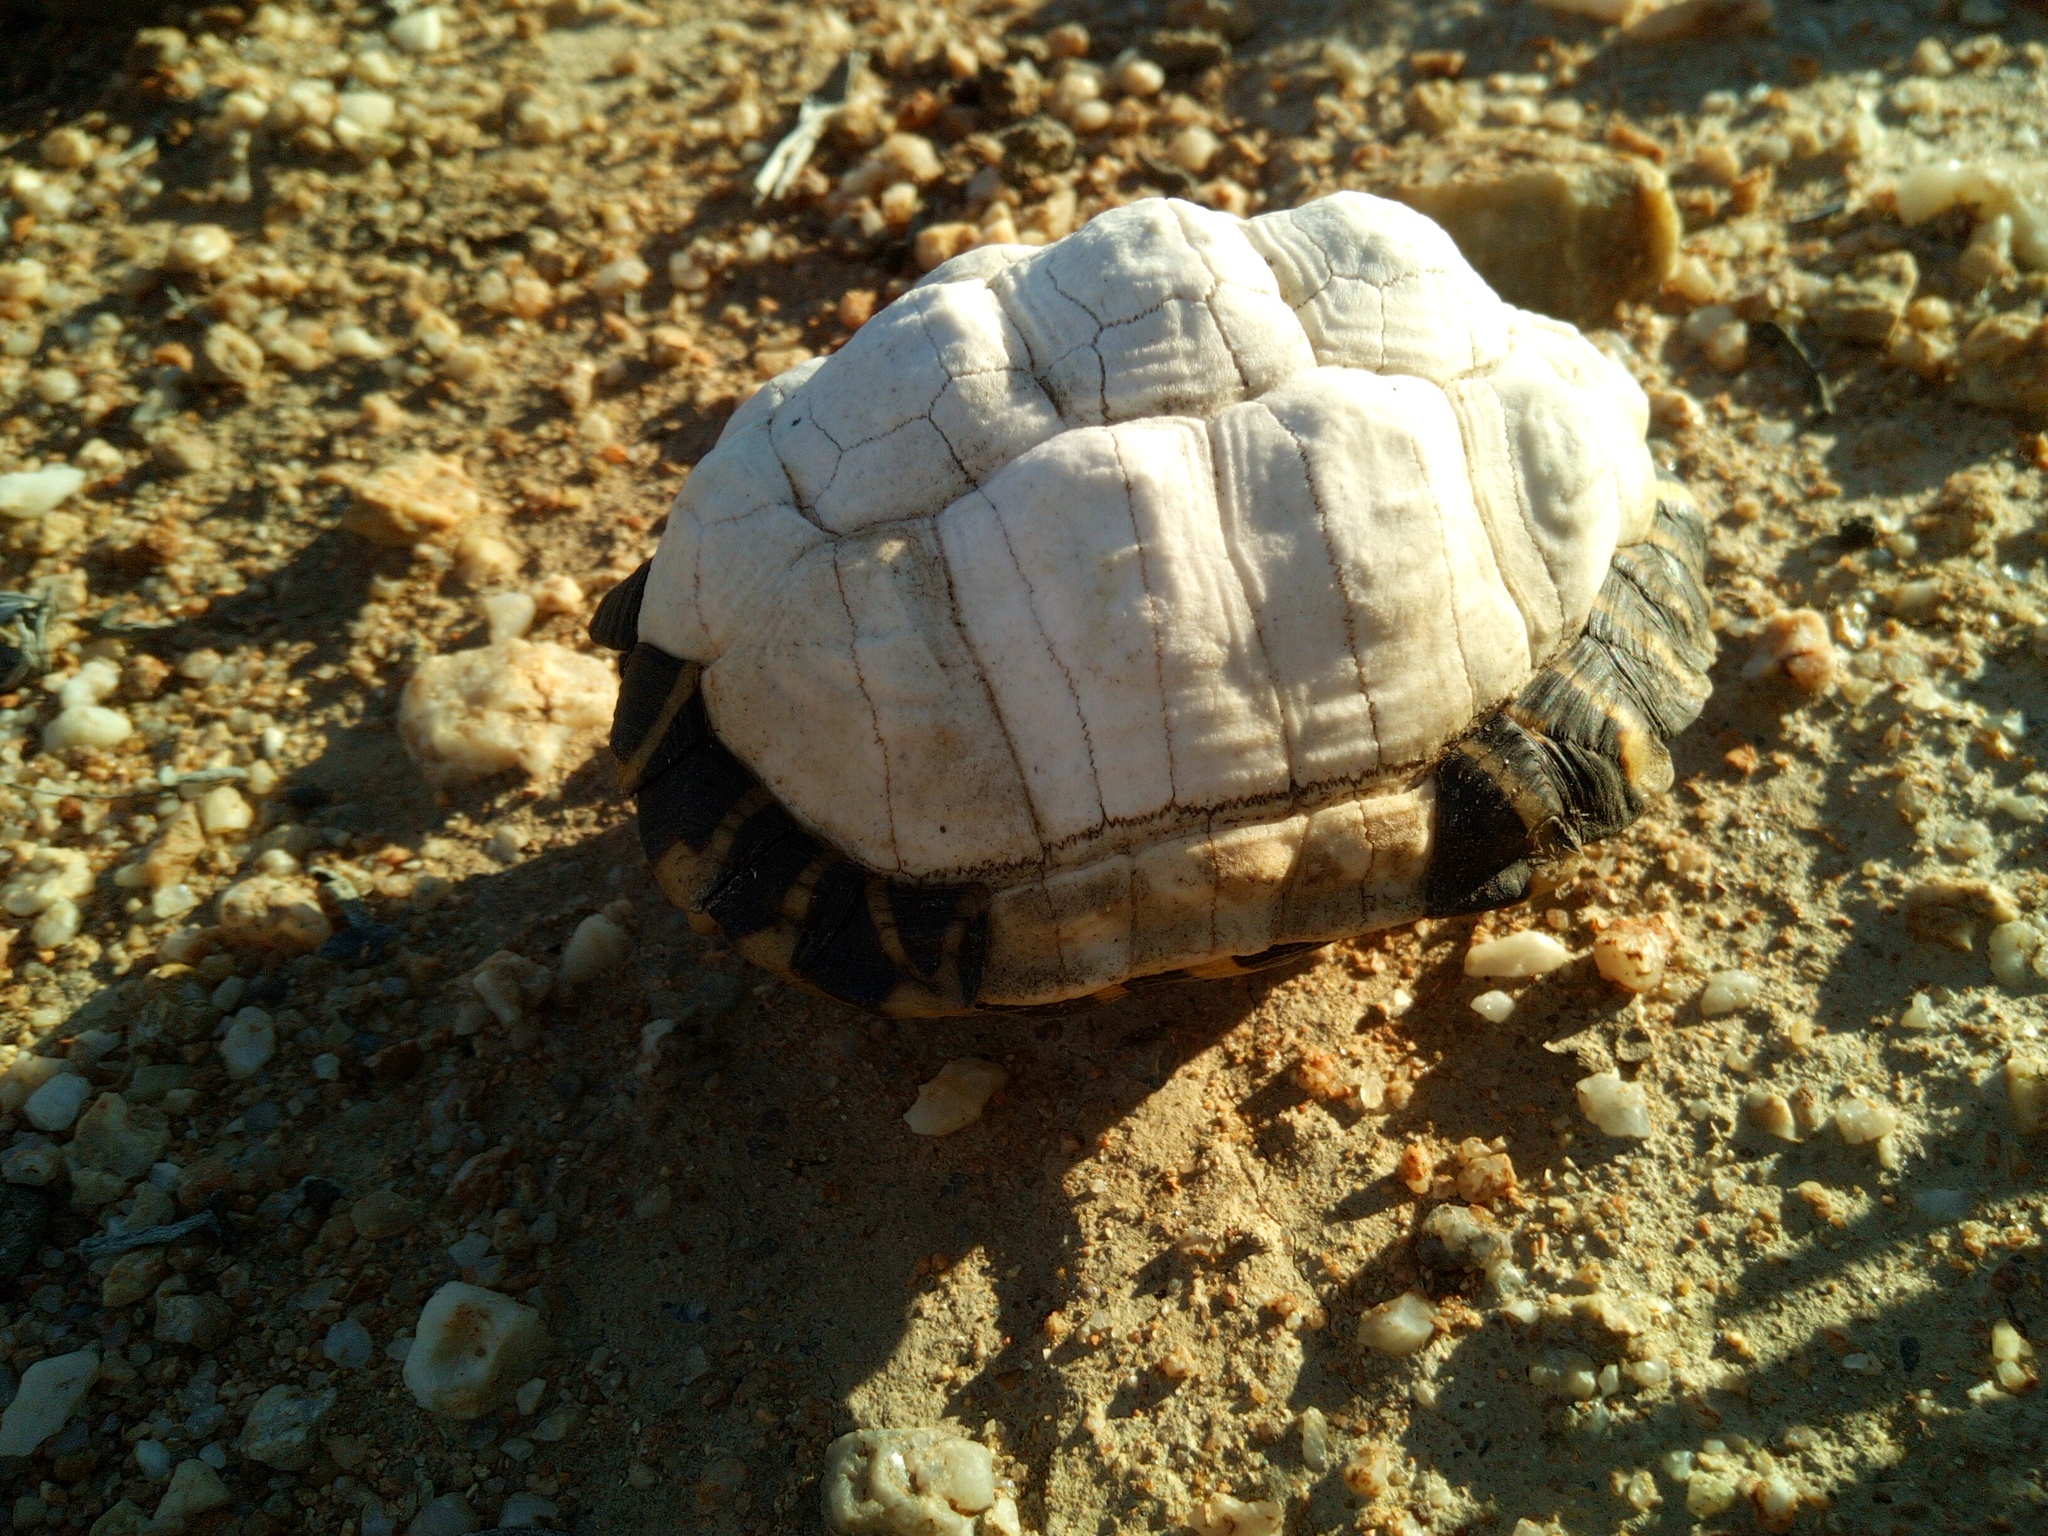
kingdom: Animalia
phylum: Chordata
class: Testudines
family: Testudinidae
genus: Psammobates
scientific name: Psammobates tentorius
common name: Tent tortoise
